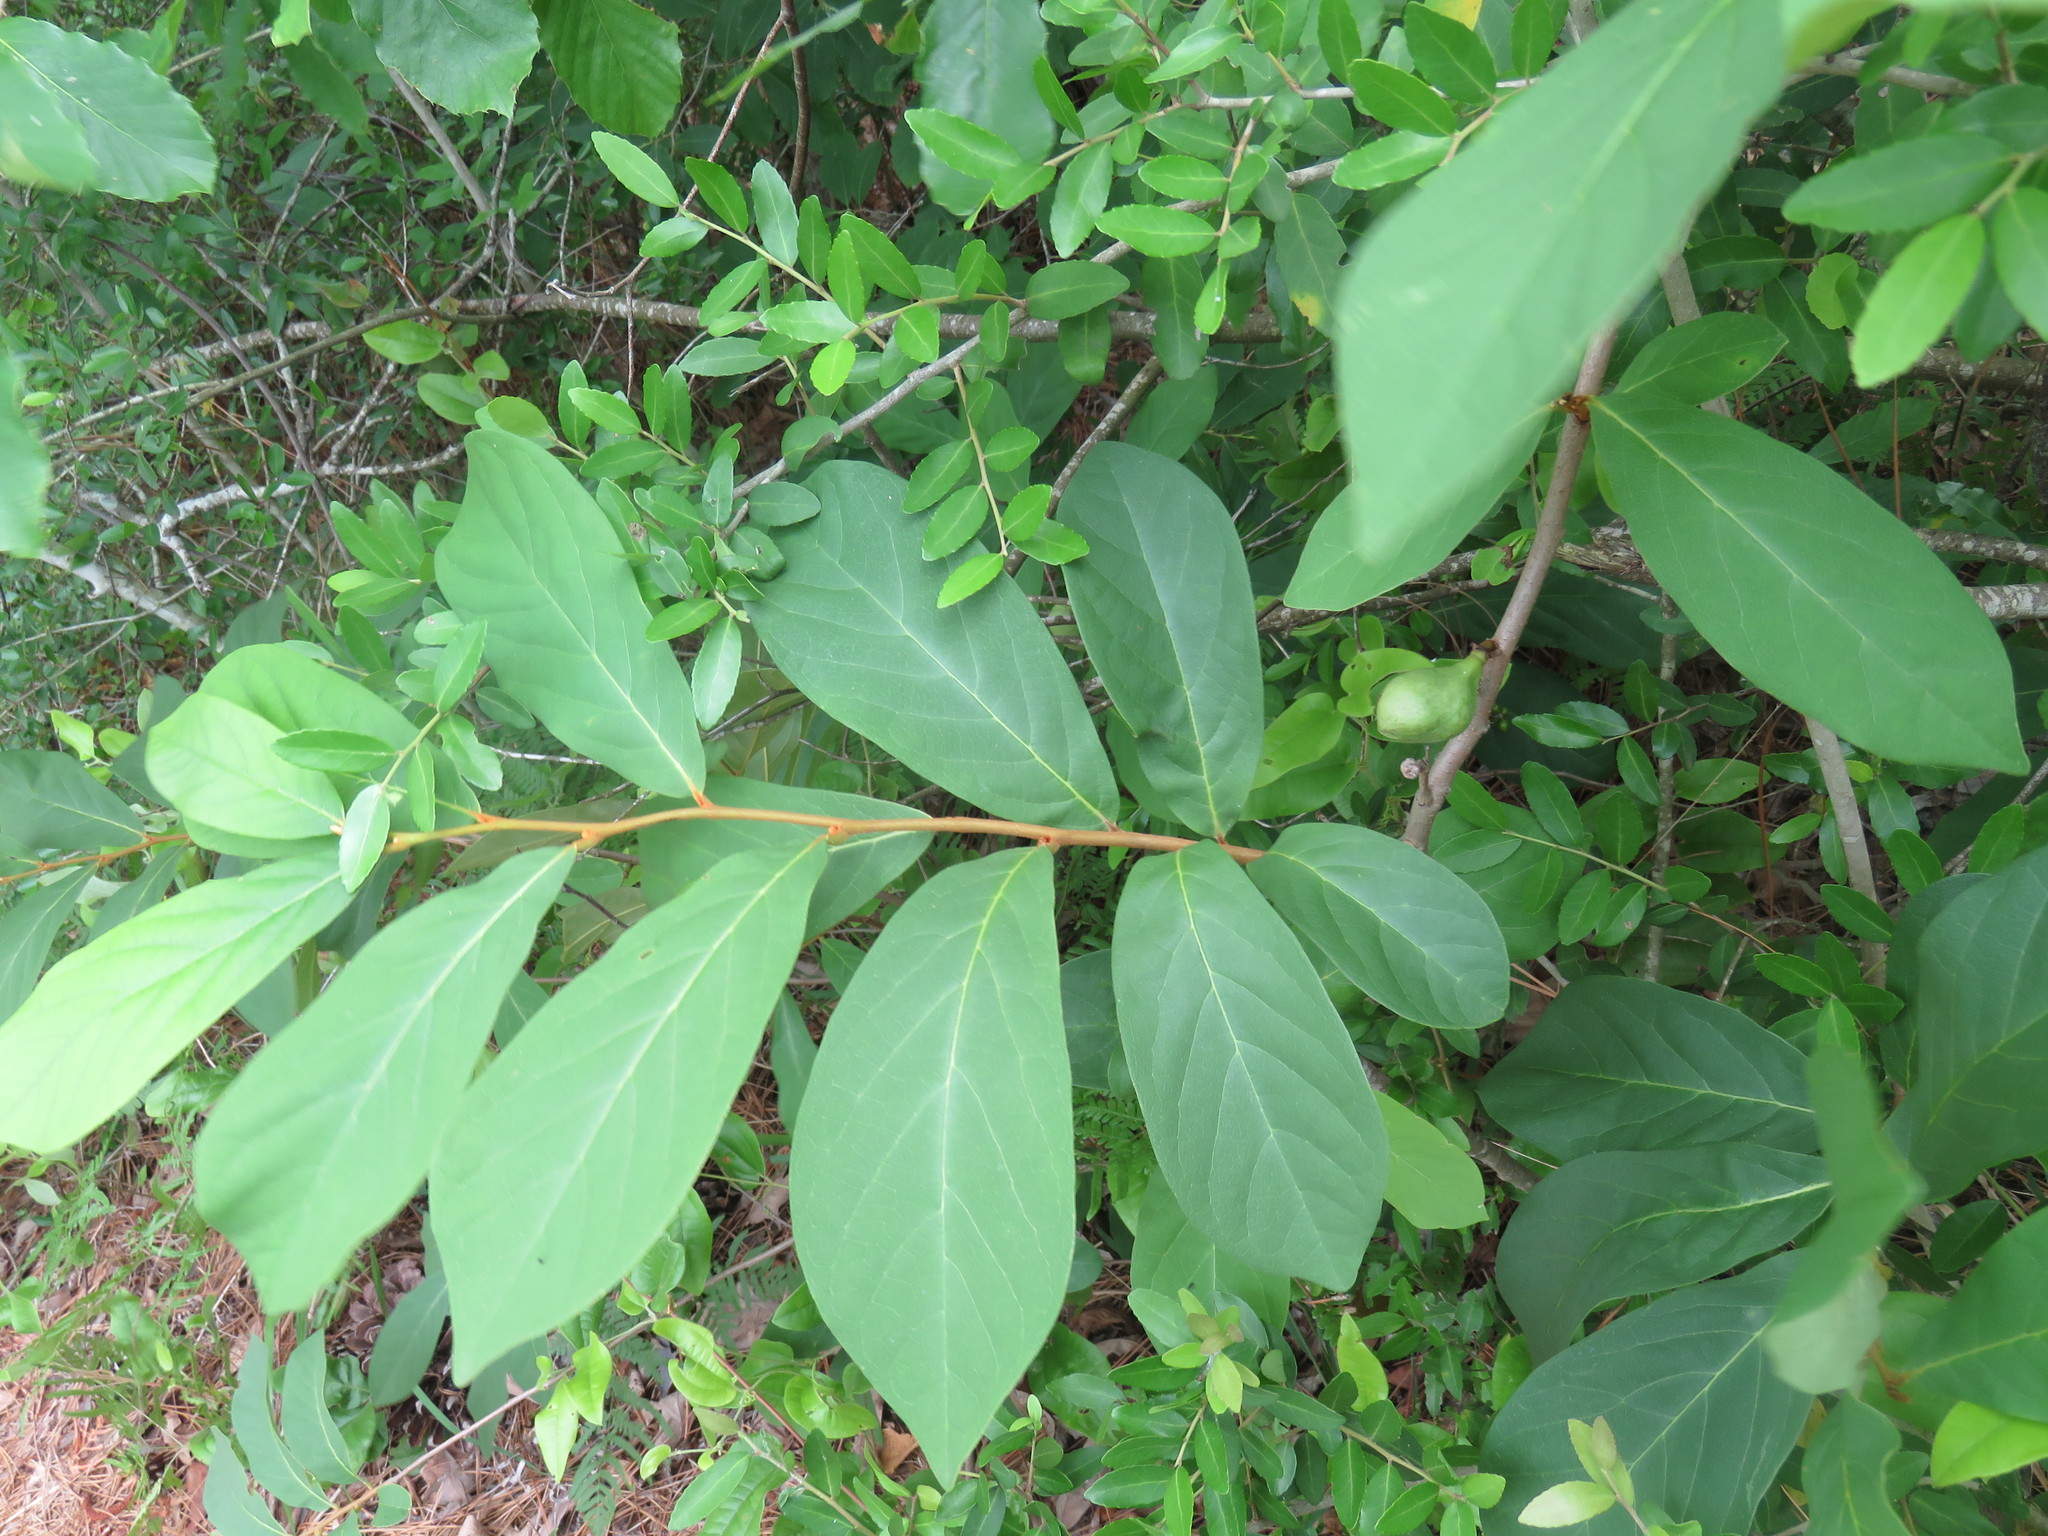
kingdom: Plantae
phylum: Tracheophyta
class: Magnoliopsida
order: Magnoliales
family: Annonaceae
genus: Asimina
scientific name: Asimina parviflora
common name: Dwarf pawpaw
